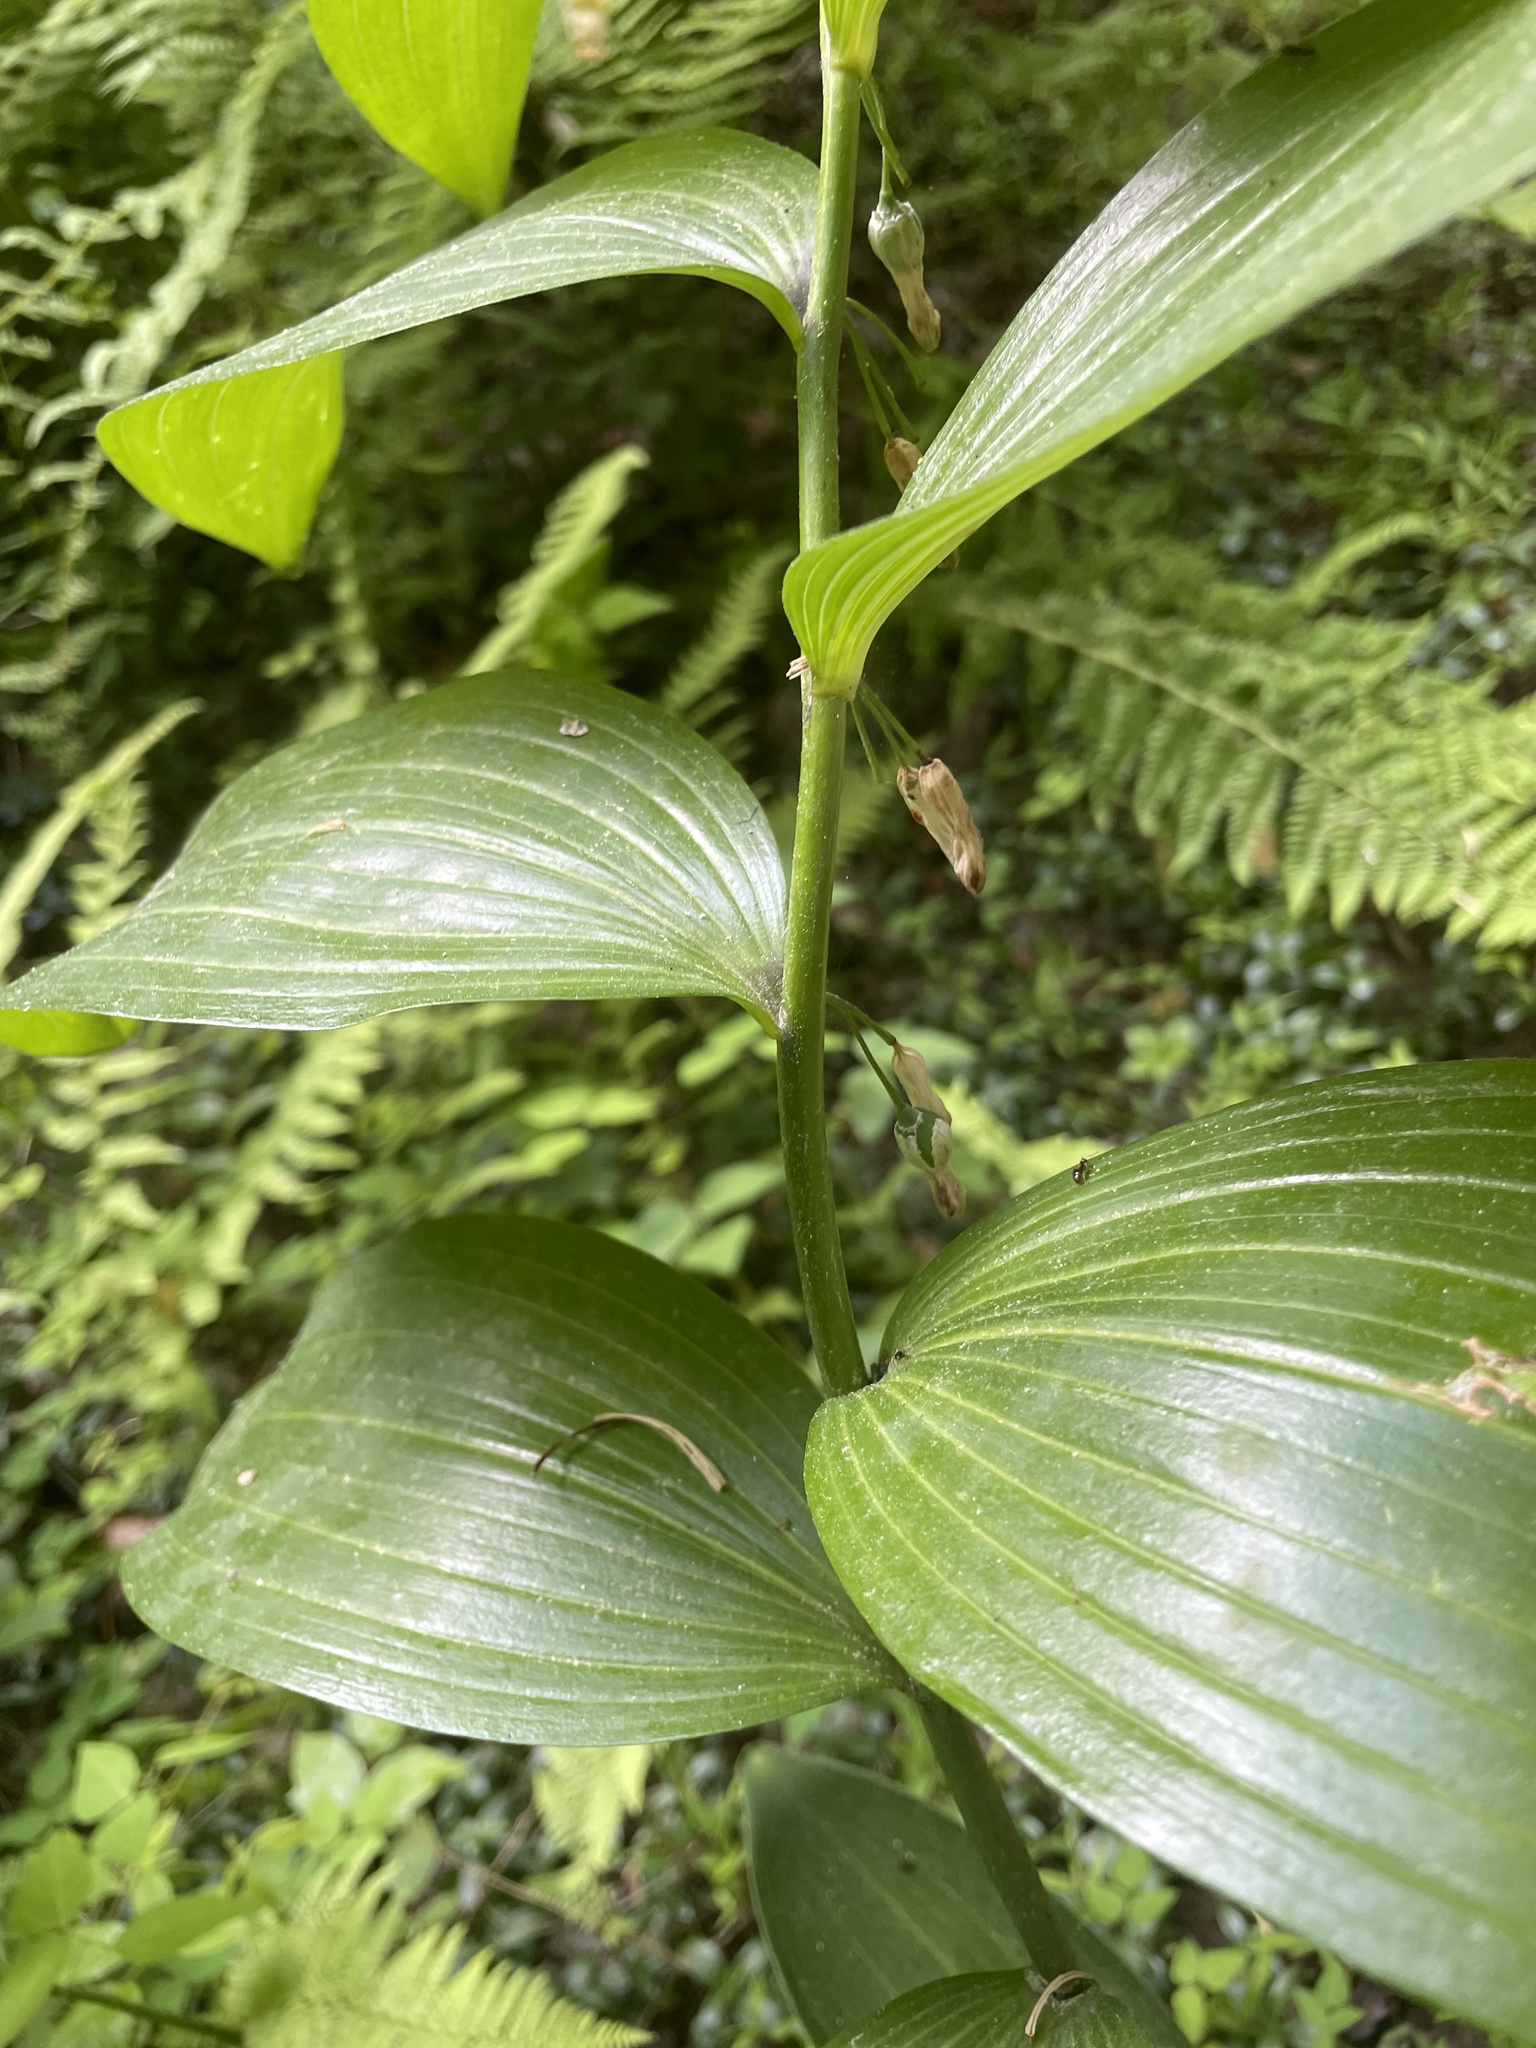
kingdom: Plantae
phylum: Tracheophyta
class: Liliopsida
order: Asparagales
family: Asparagaceae
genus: Polygonatum
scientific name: Polygonatum biflorum
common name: American solomon's-seal
